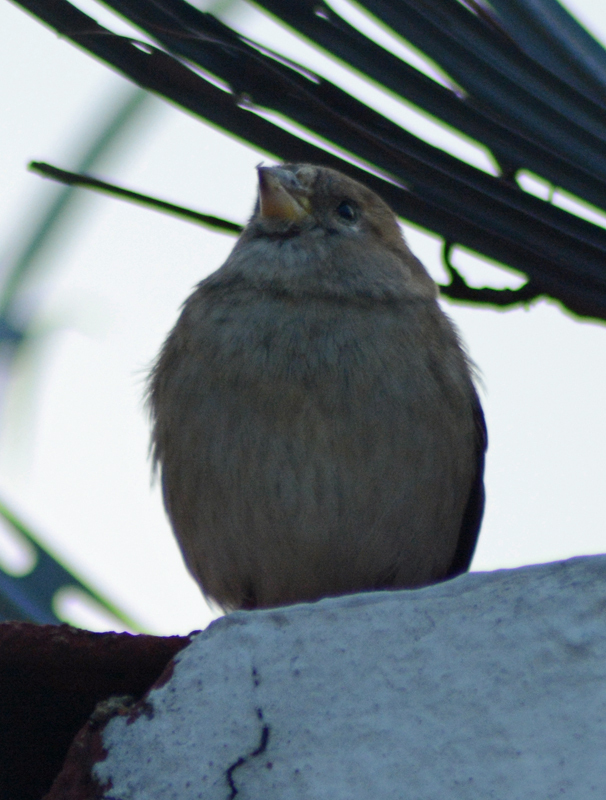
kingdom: Animalia
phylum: Chordata
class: Aves
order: Passeriformes
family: Passeridae
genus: Passer
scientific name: Passer domesticus
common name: House sparrow
